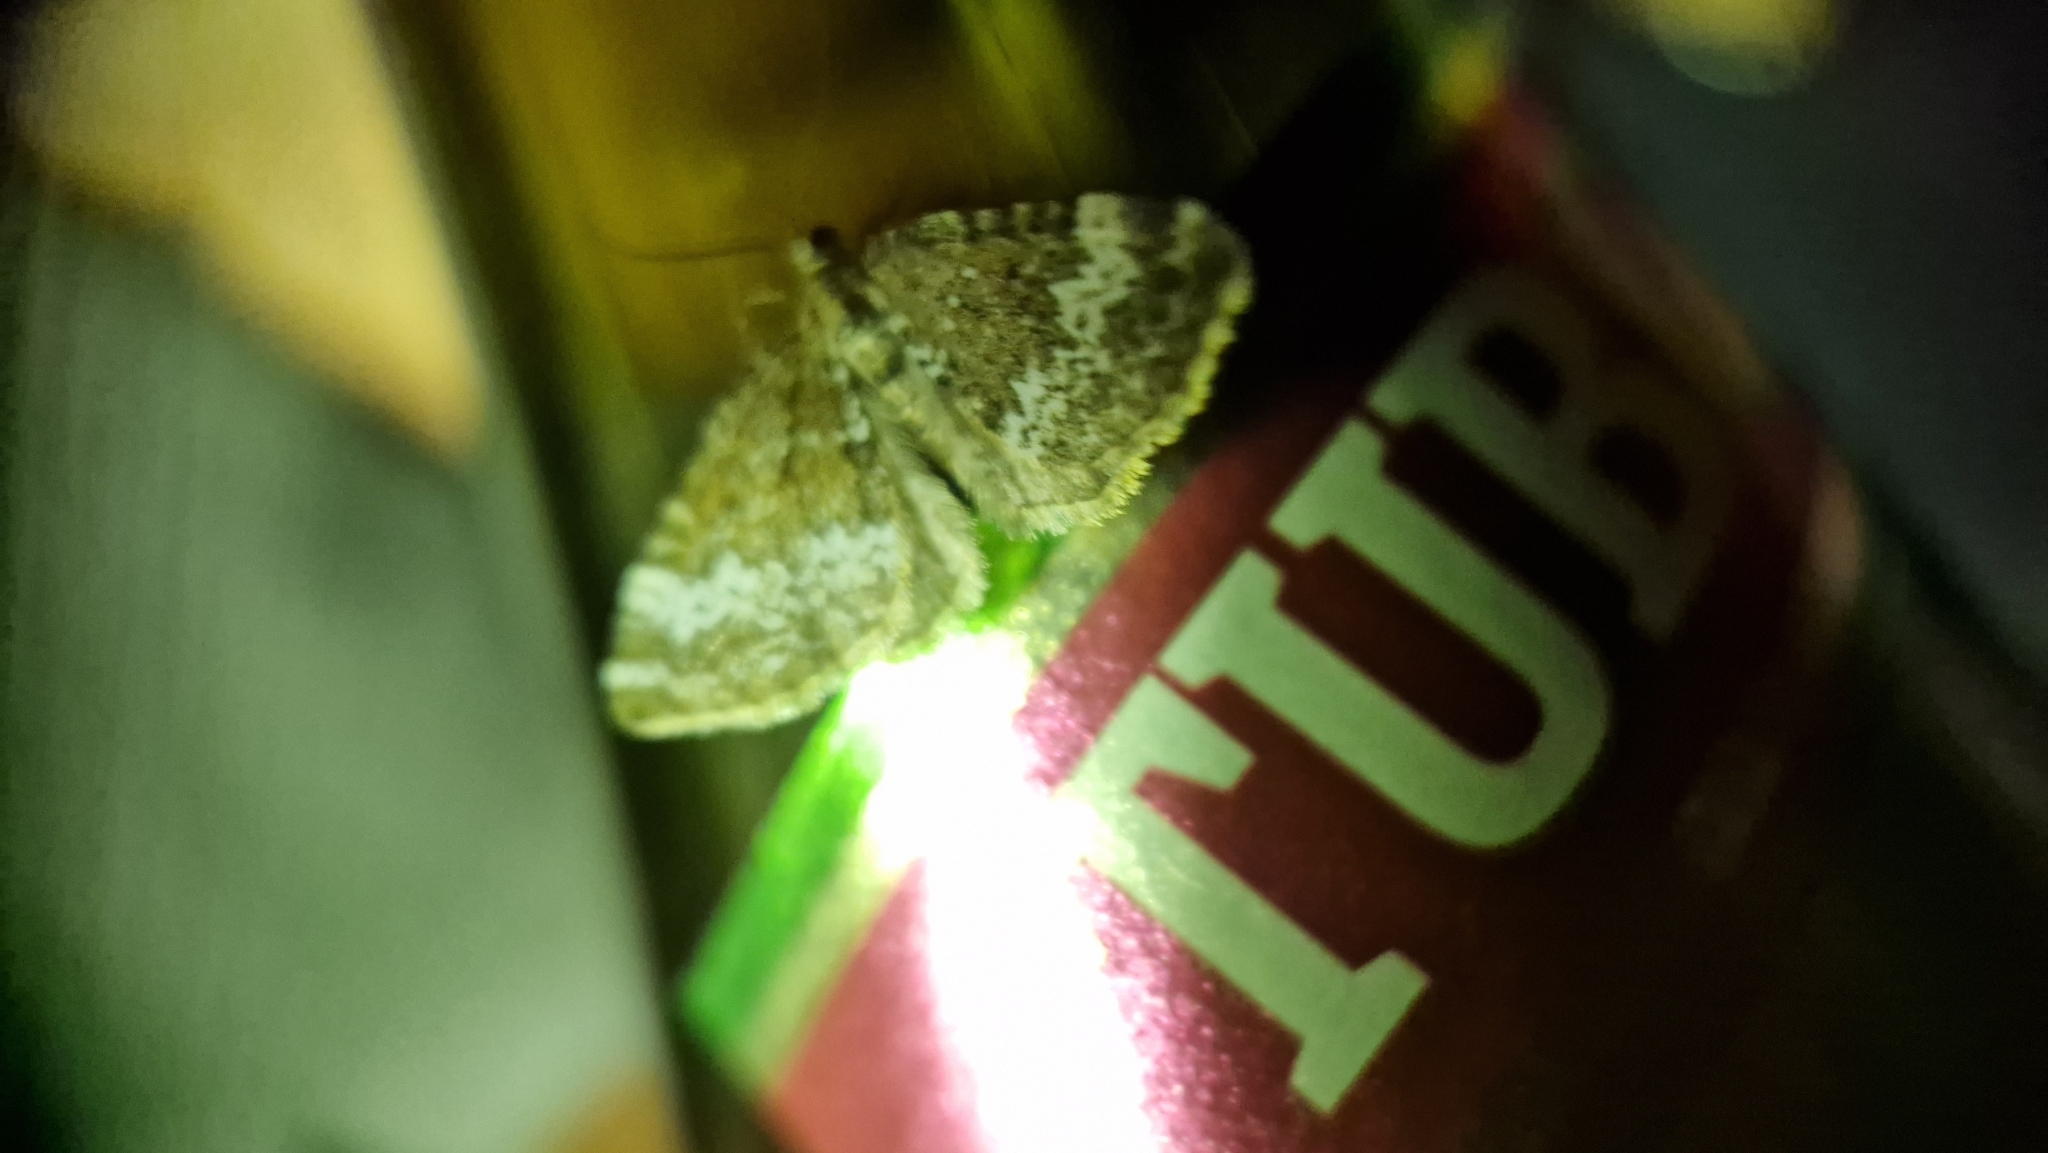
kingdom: Animalia
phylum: Arthropoda
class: Insecta
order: Lepidoptera
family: Geometridae
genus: Perizoma
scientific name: Perizoma alchemillata
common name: Small rivulet
